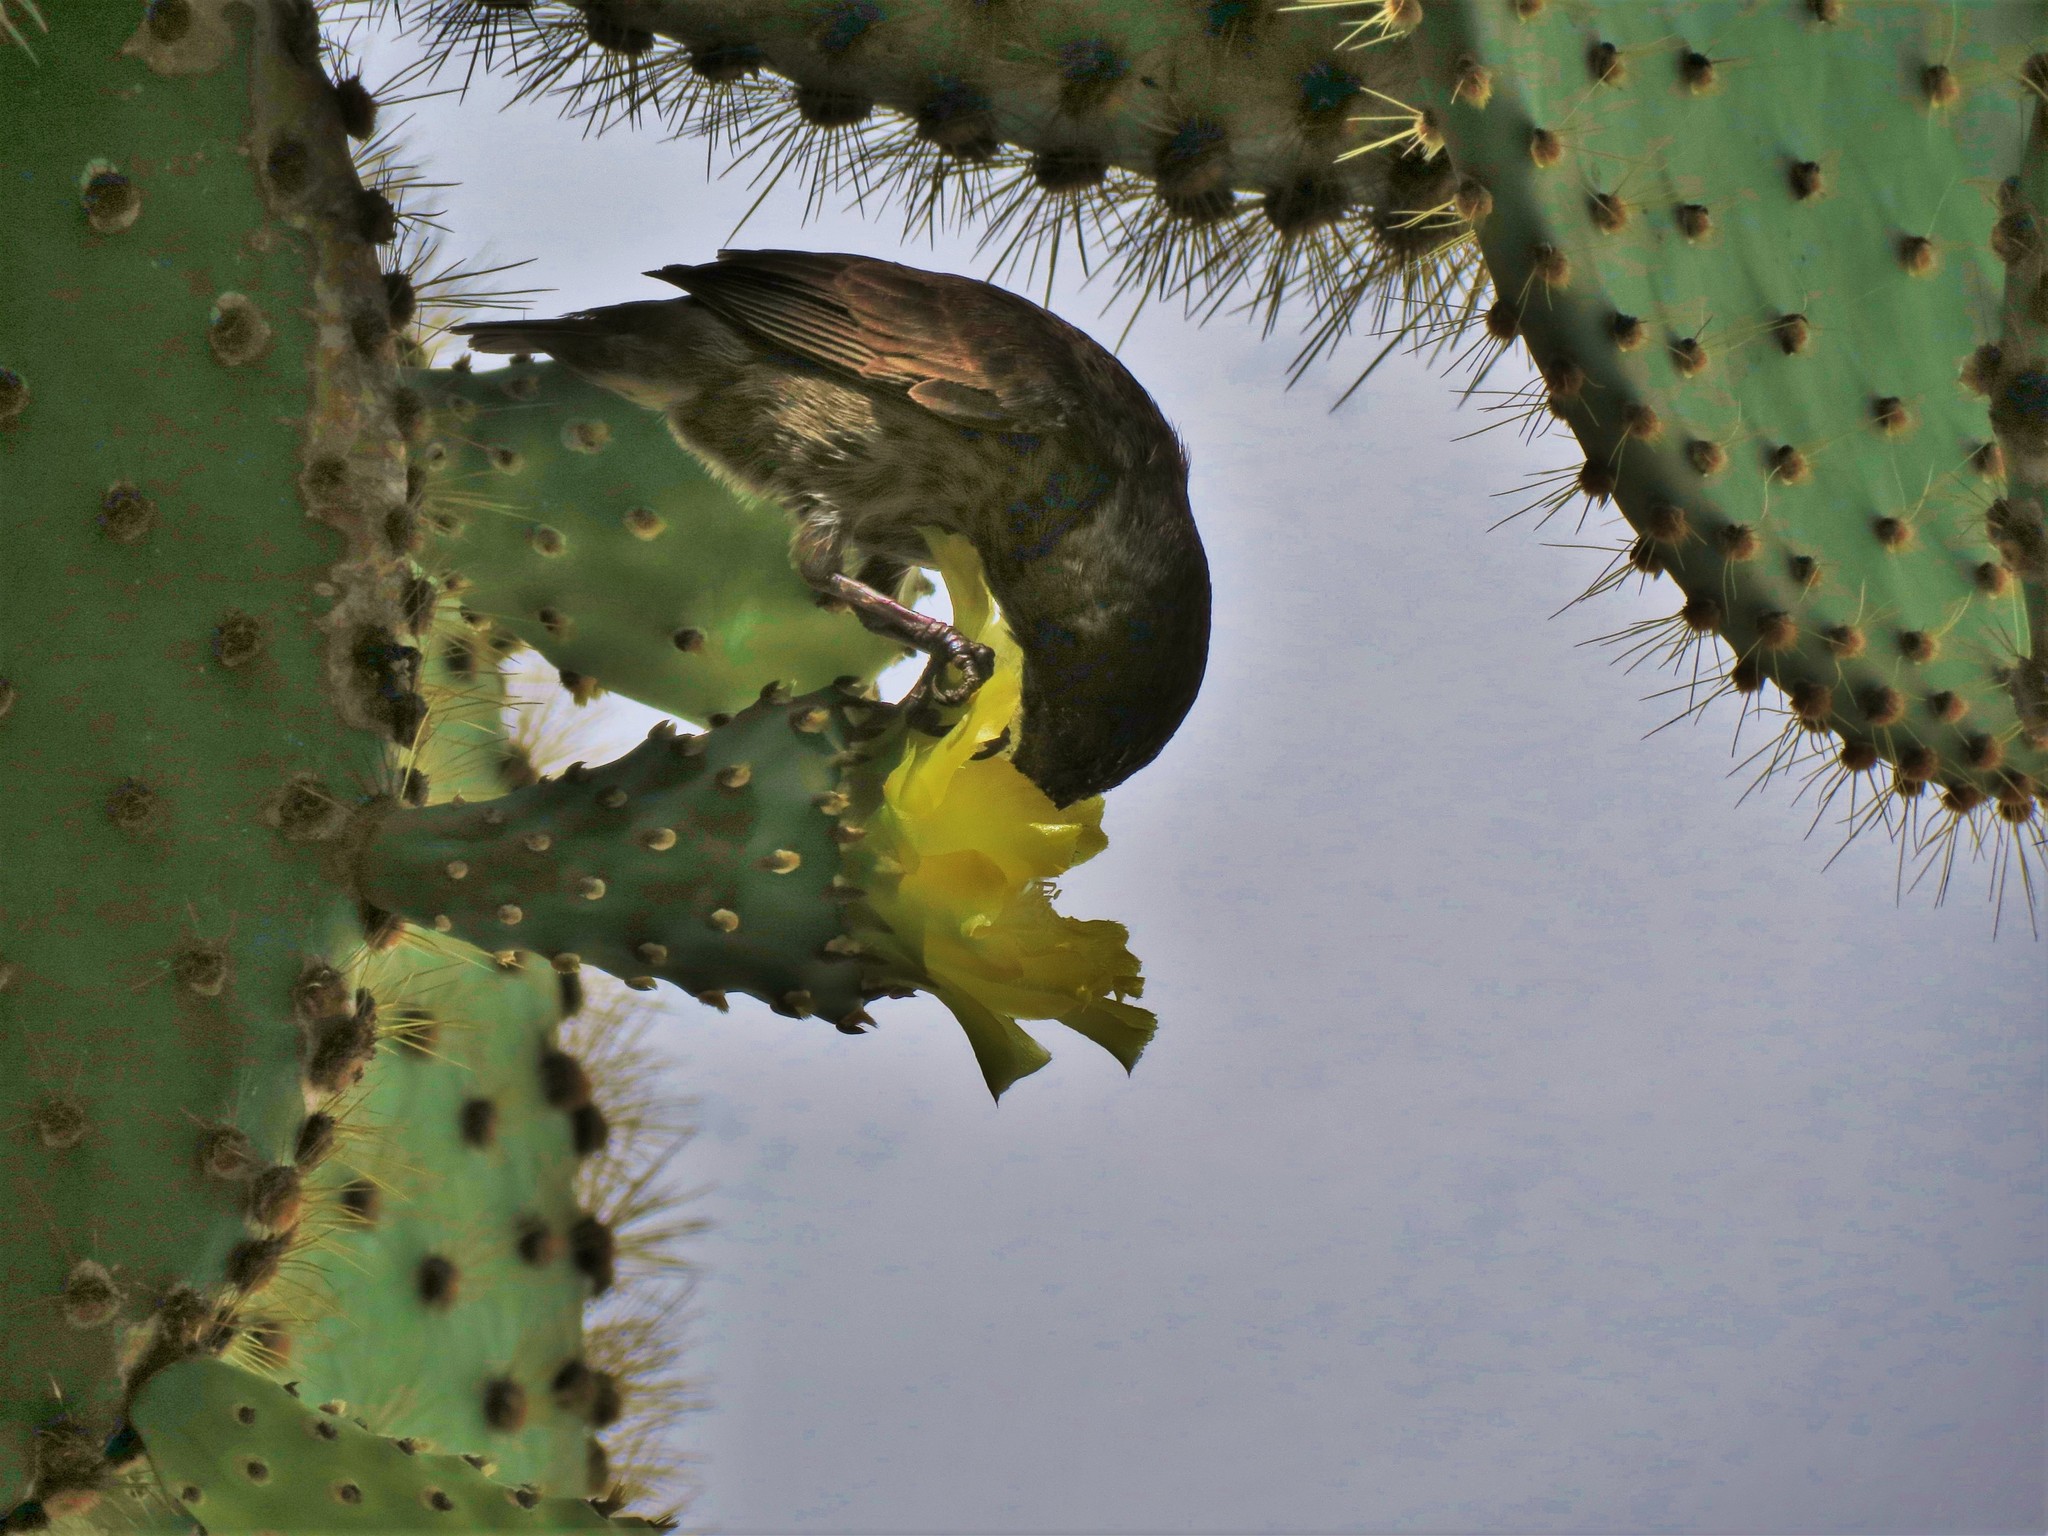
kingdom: Animalia
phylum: Chordata
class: Aves
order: Passeriformes
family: Thraupidae
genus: Geospiza
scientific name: Geospiza scandens
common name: Common cactus-finch
